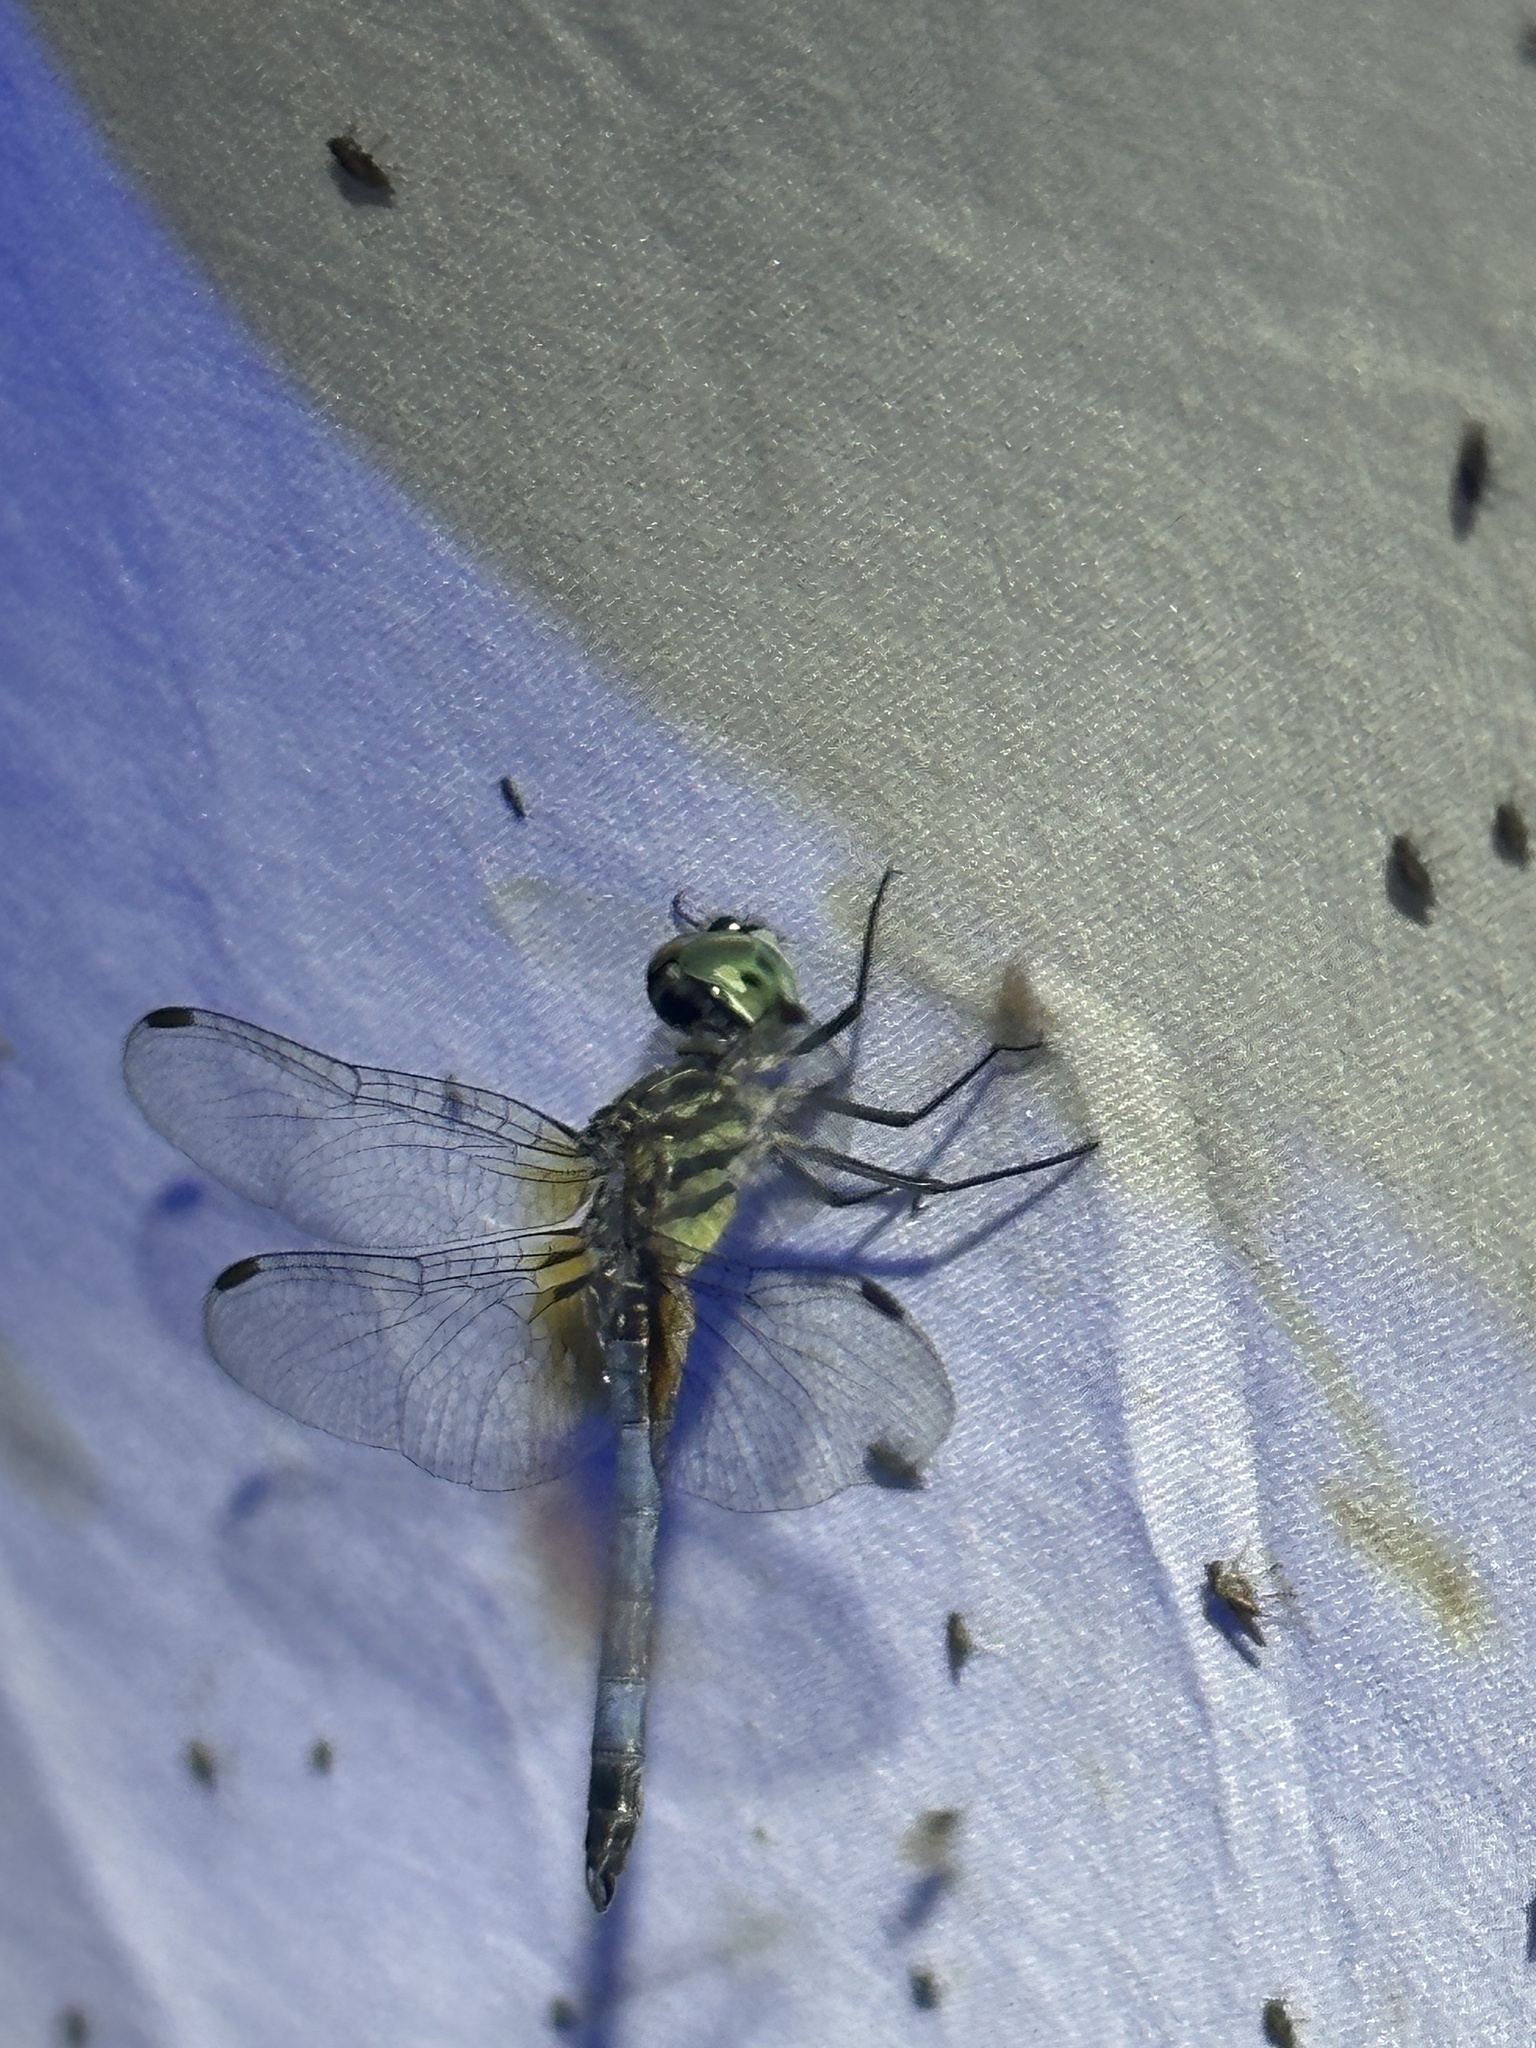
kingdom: Animalia
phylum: Arthropoda
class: Insecta
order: Odonata
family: Libellulidae
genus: Pachydiplax
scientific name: Pachydiplax longipennis
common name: Blue dasher
